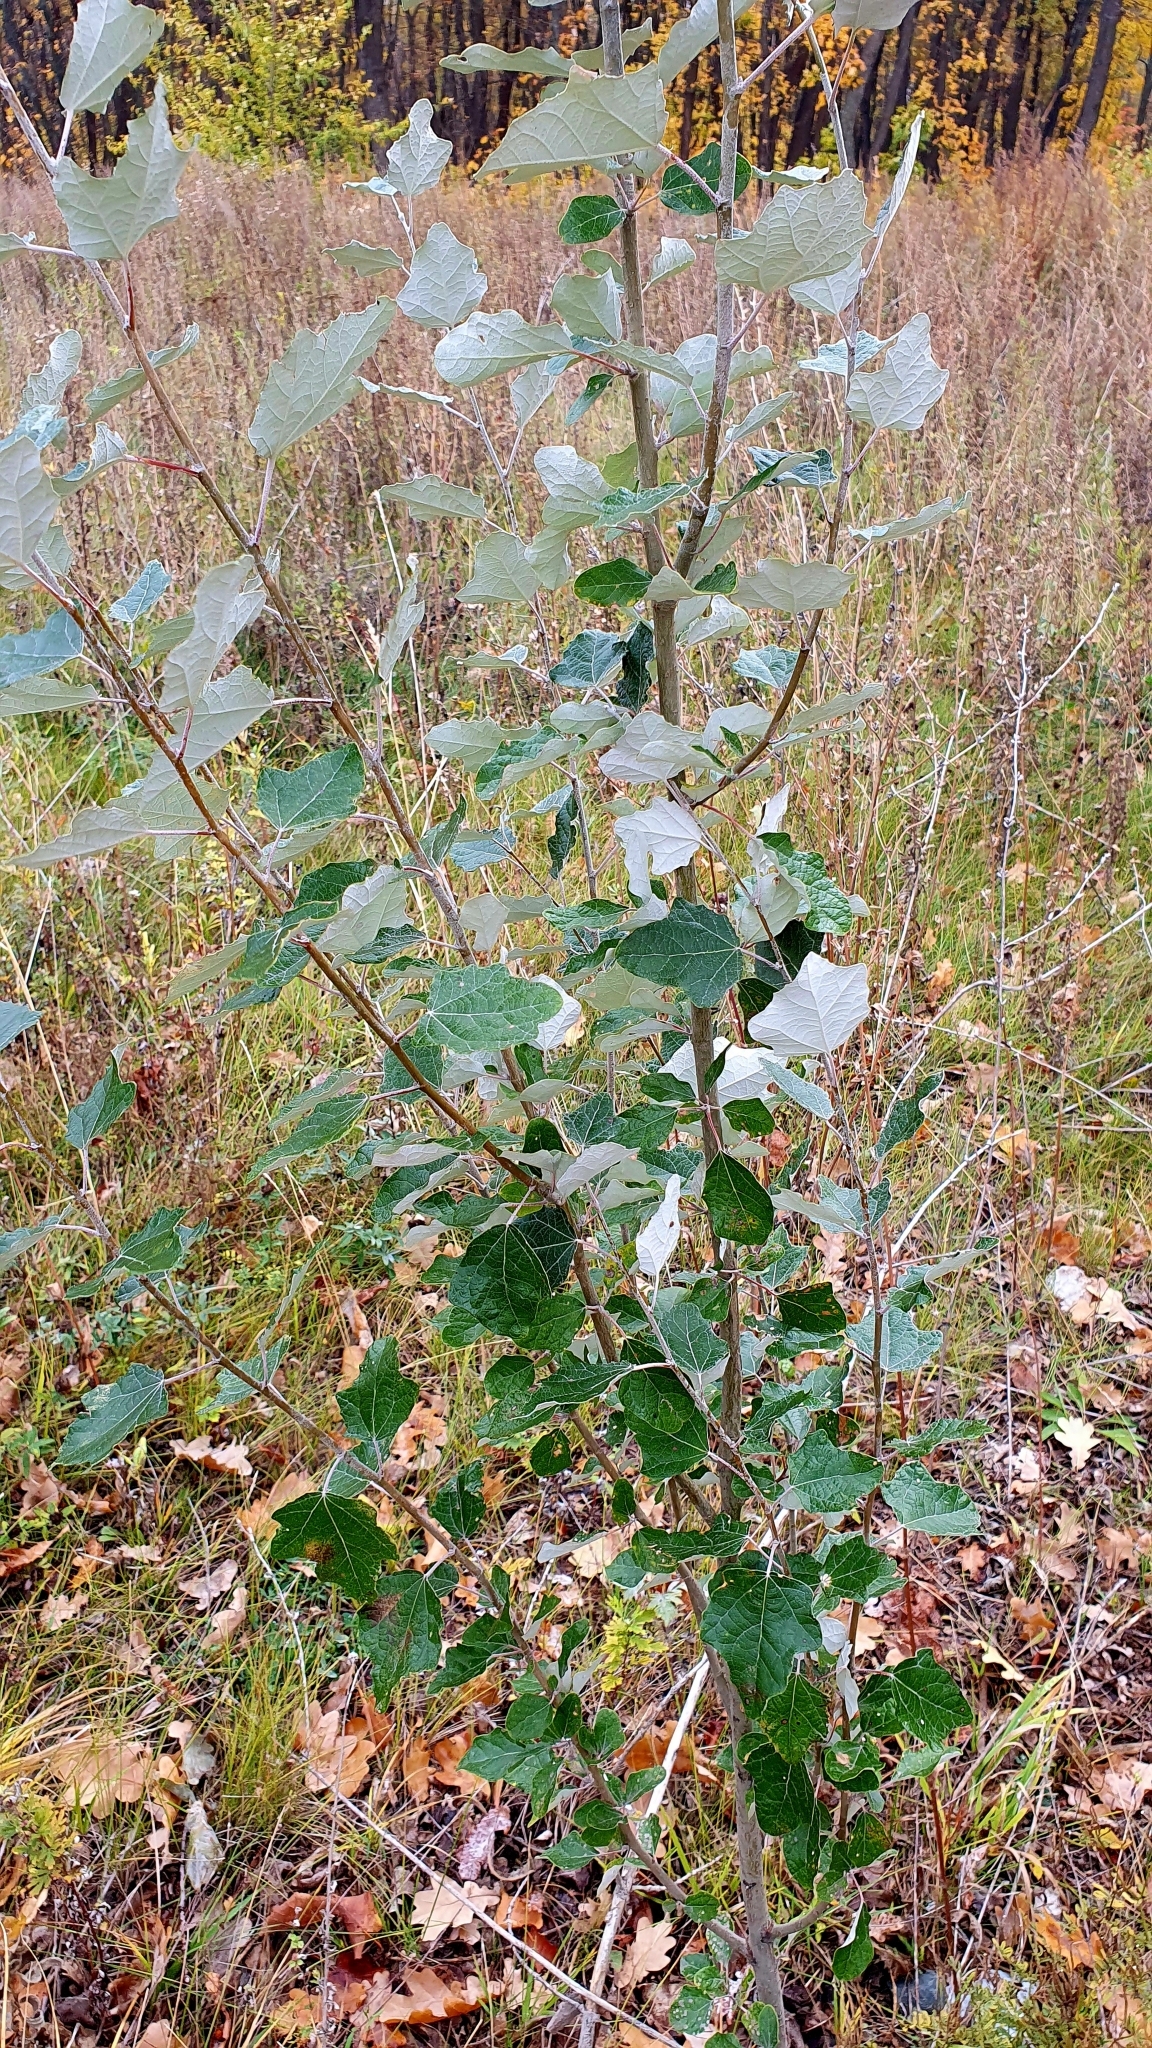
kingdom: Plantae
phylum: Tracheophyta
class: Magnoliopsida
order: Malpighiales
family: Salicaceae
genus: Populus
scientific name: Populus alba
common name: White poplar
